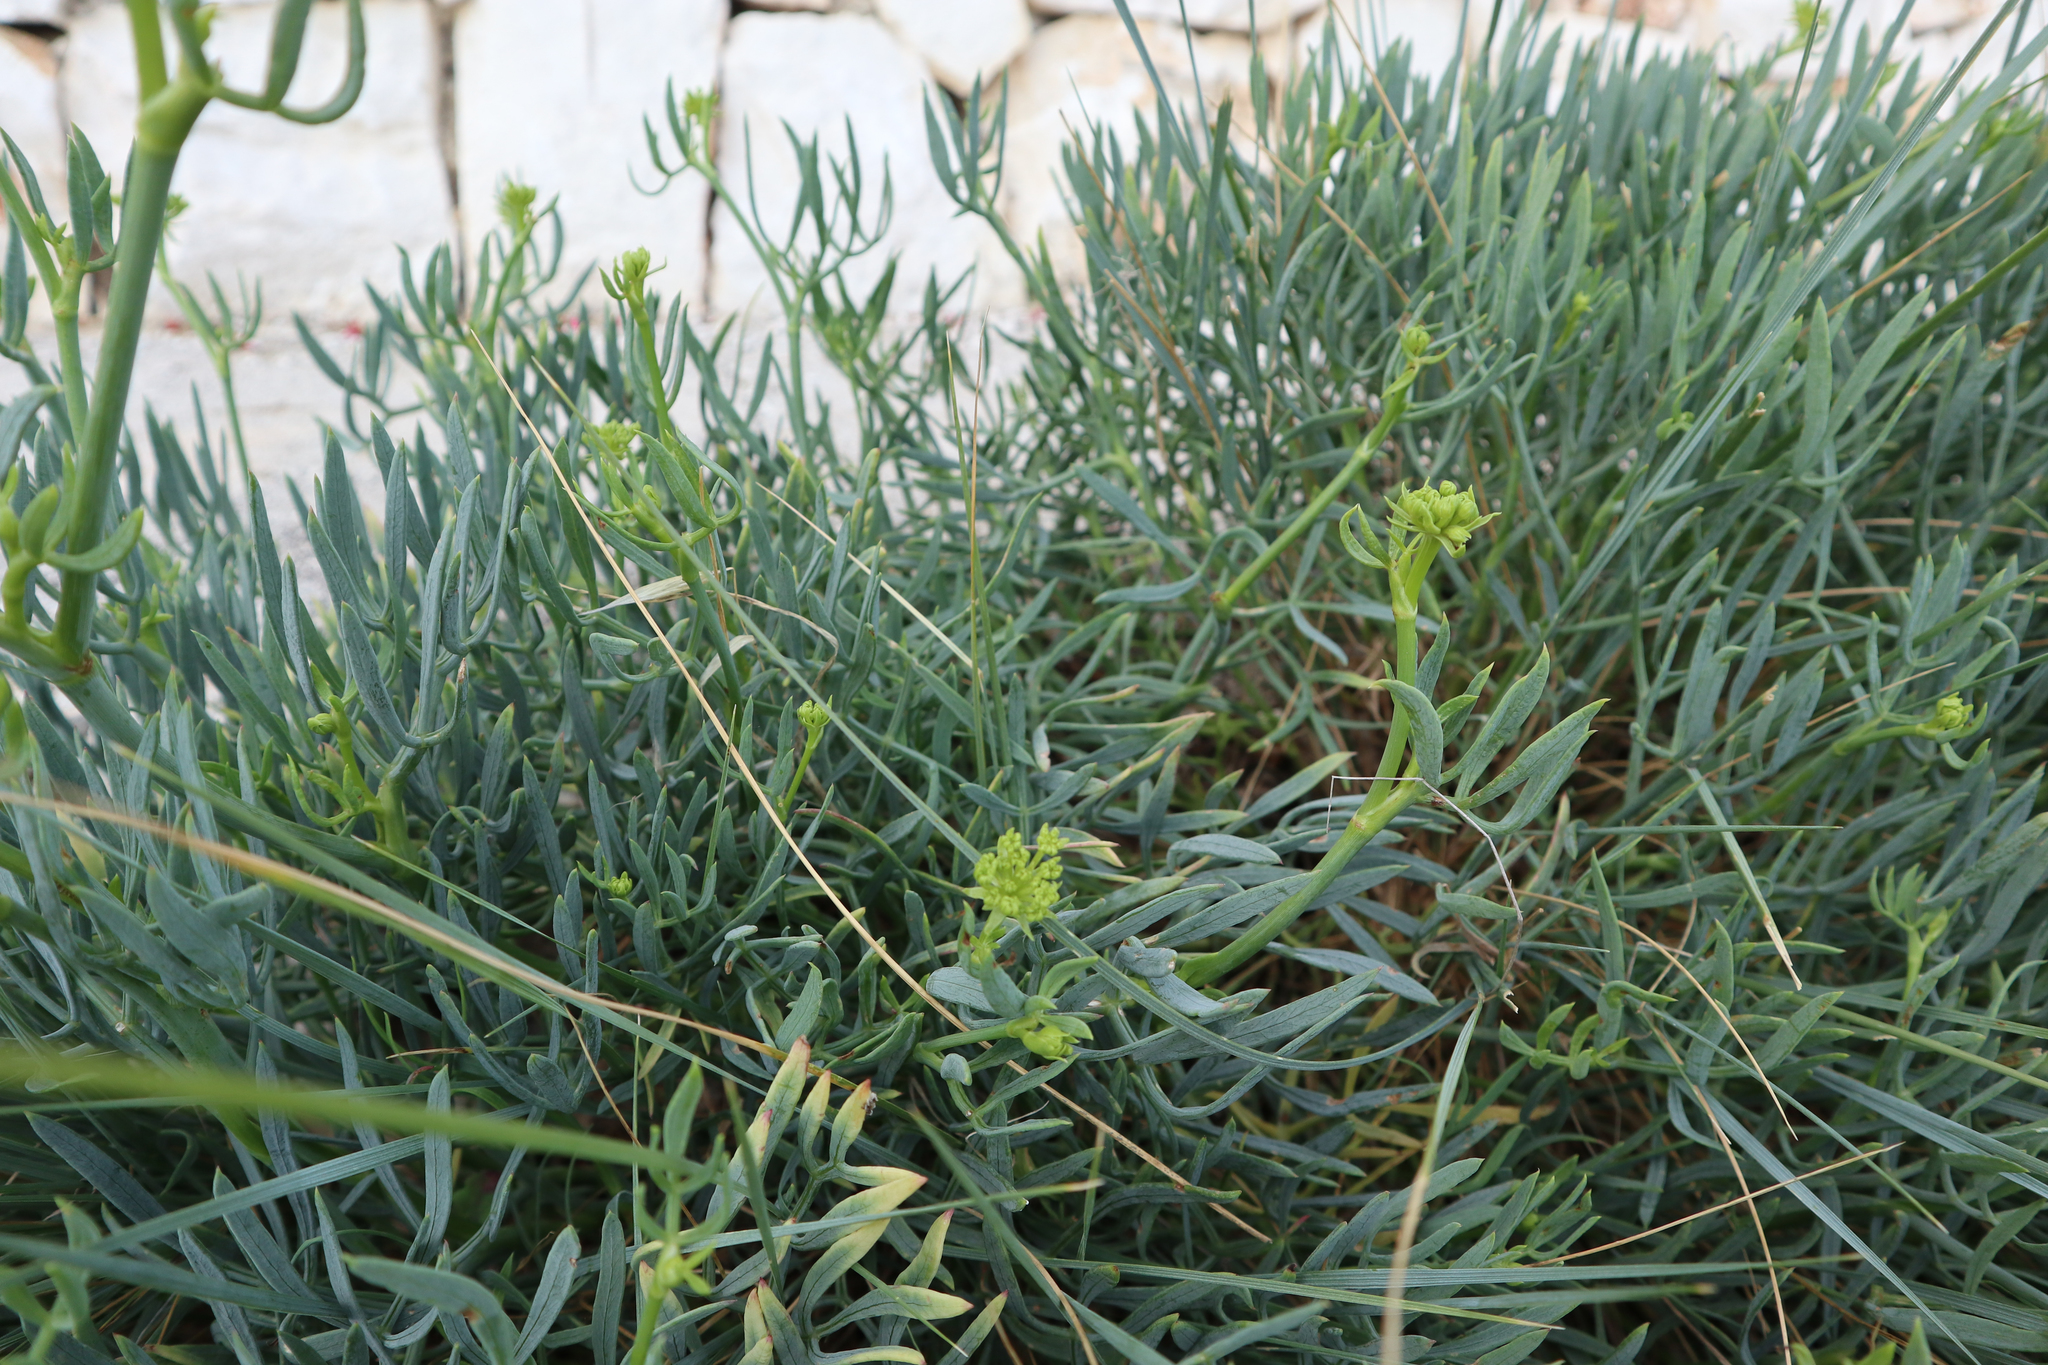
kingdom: Plantae
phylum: Tracheophyta
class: Magnoliopsida
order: Apiales
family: Apiaceae
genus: Crithmum
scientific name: Crithmum maritimum
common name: Rock samphire
